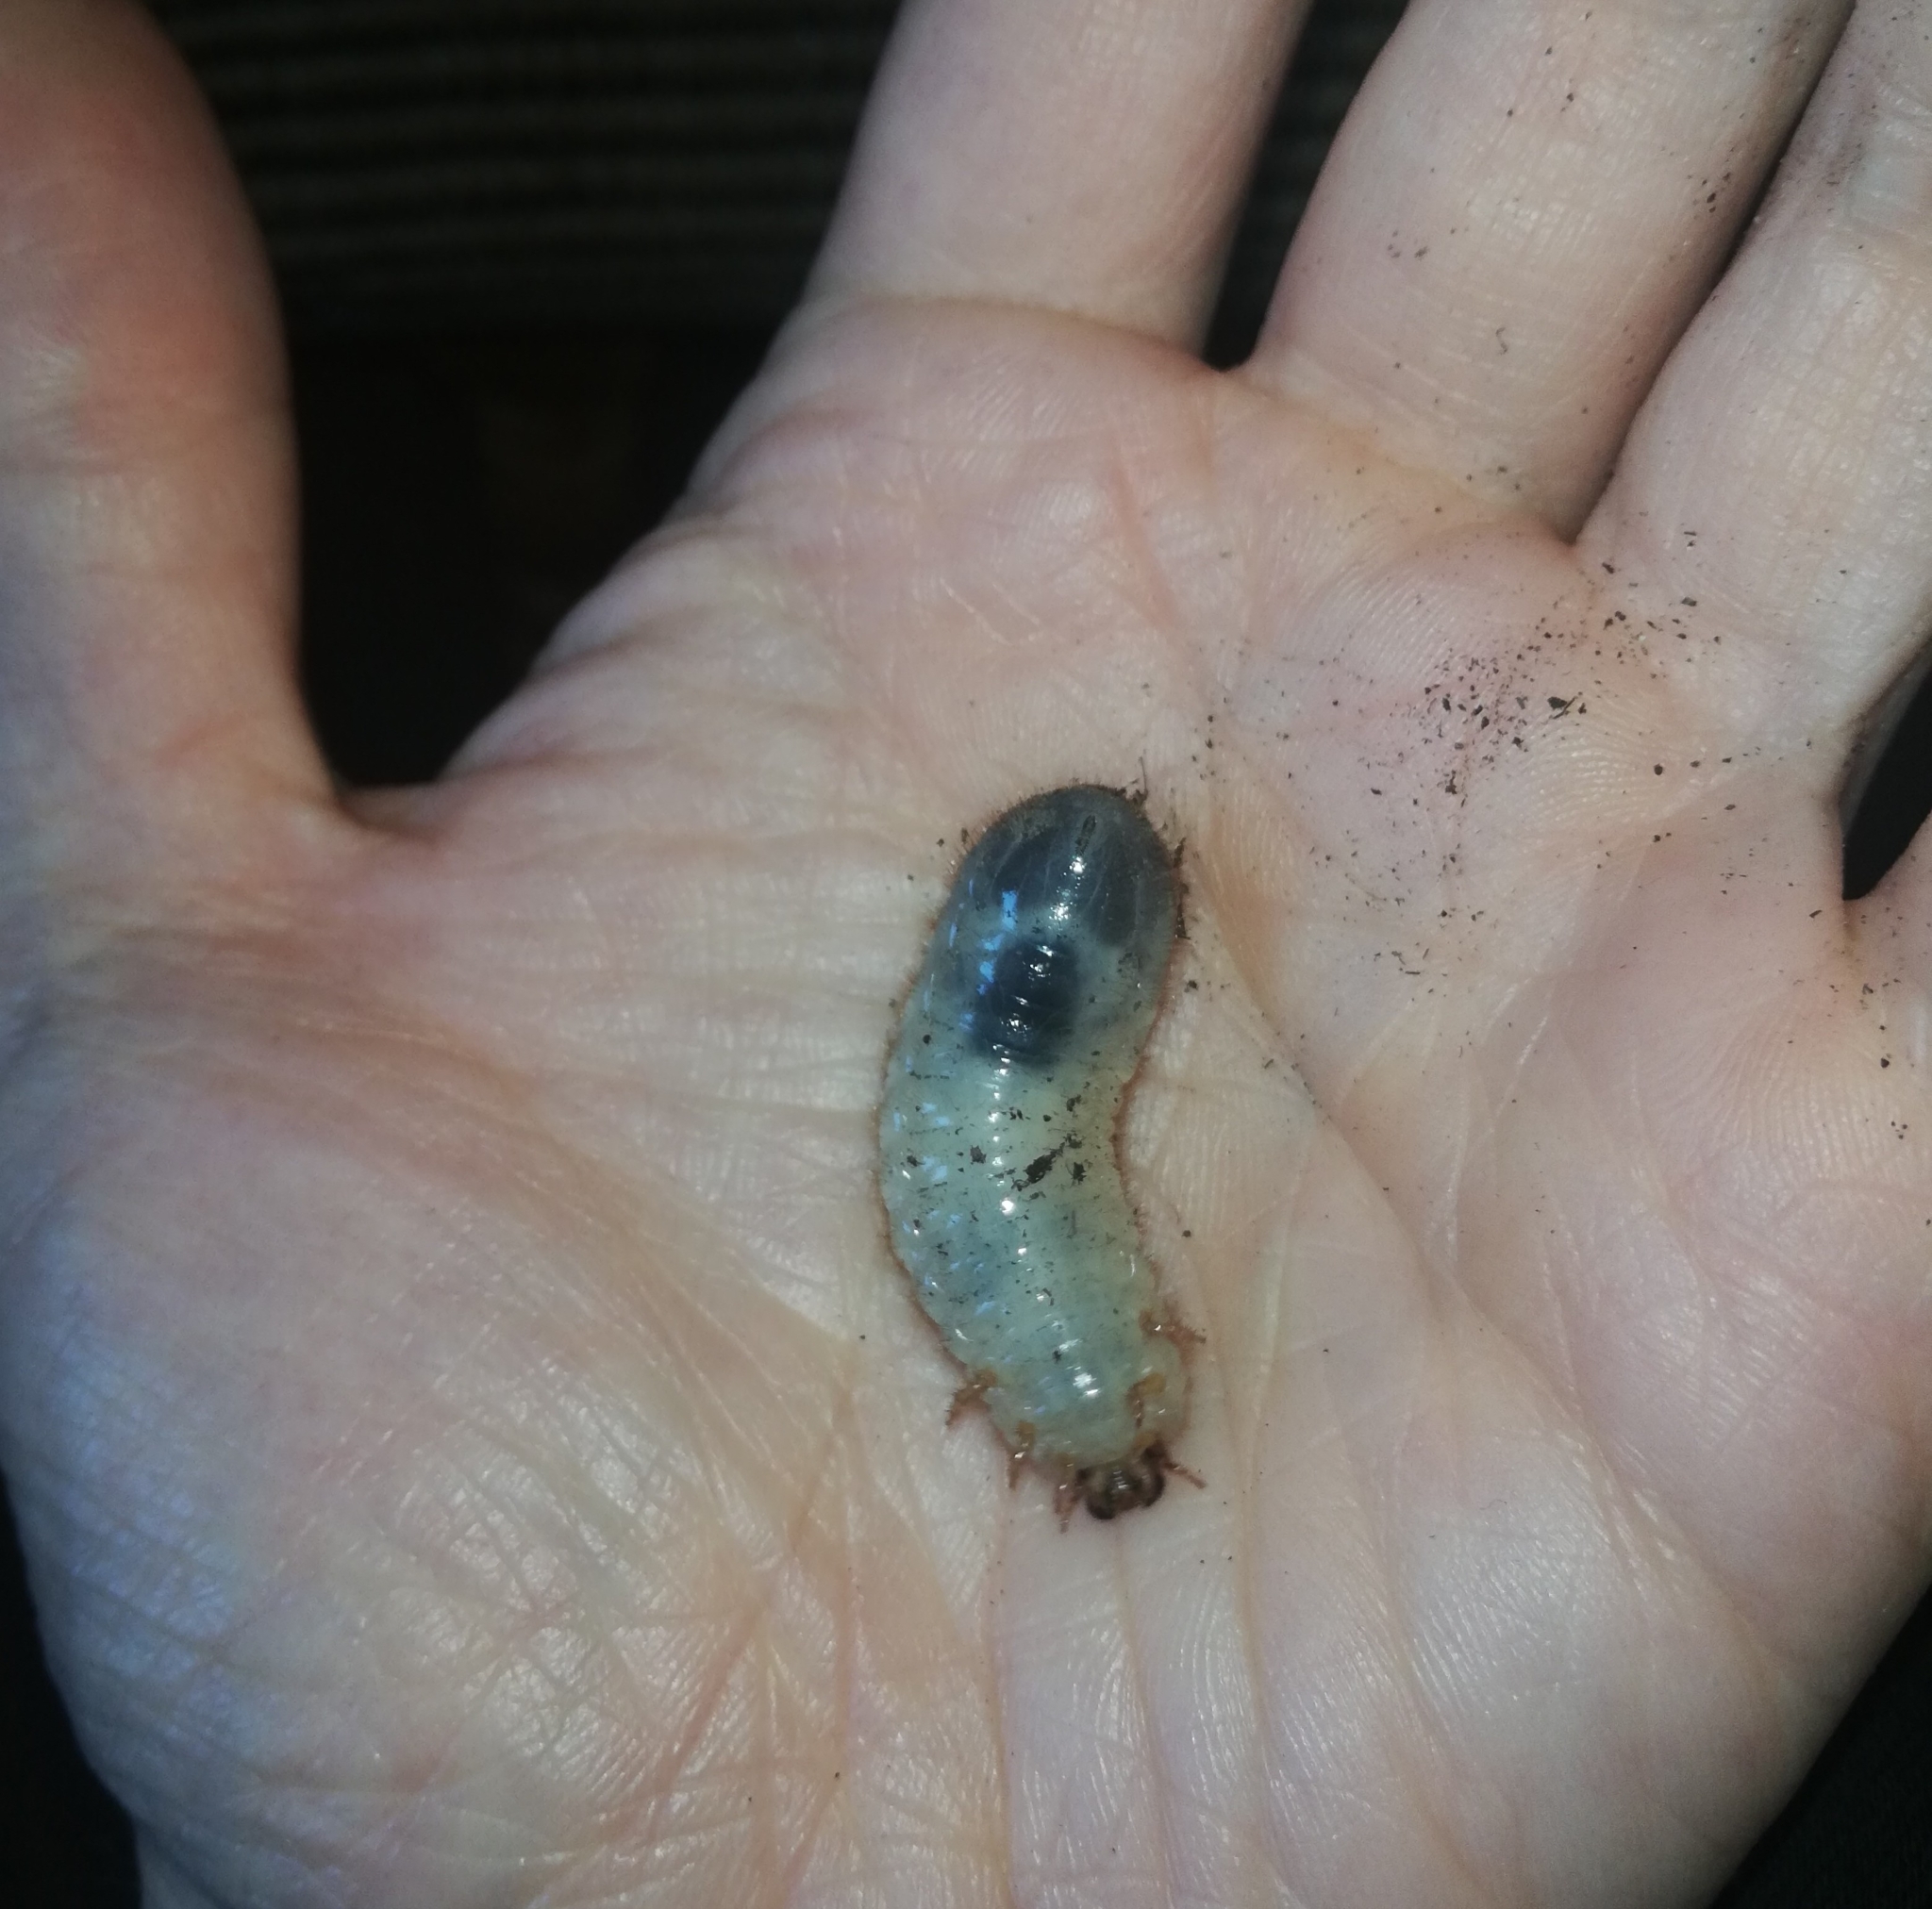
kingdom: Animalia
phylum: Arthropoda
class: Insecta
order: Coleoptera
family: Scarabaeidae
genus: Cetonia
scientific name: Cetonia aurata
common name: Rose chafer
